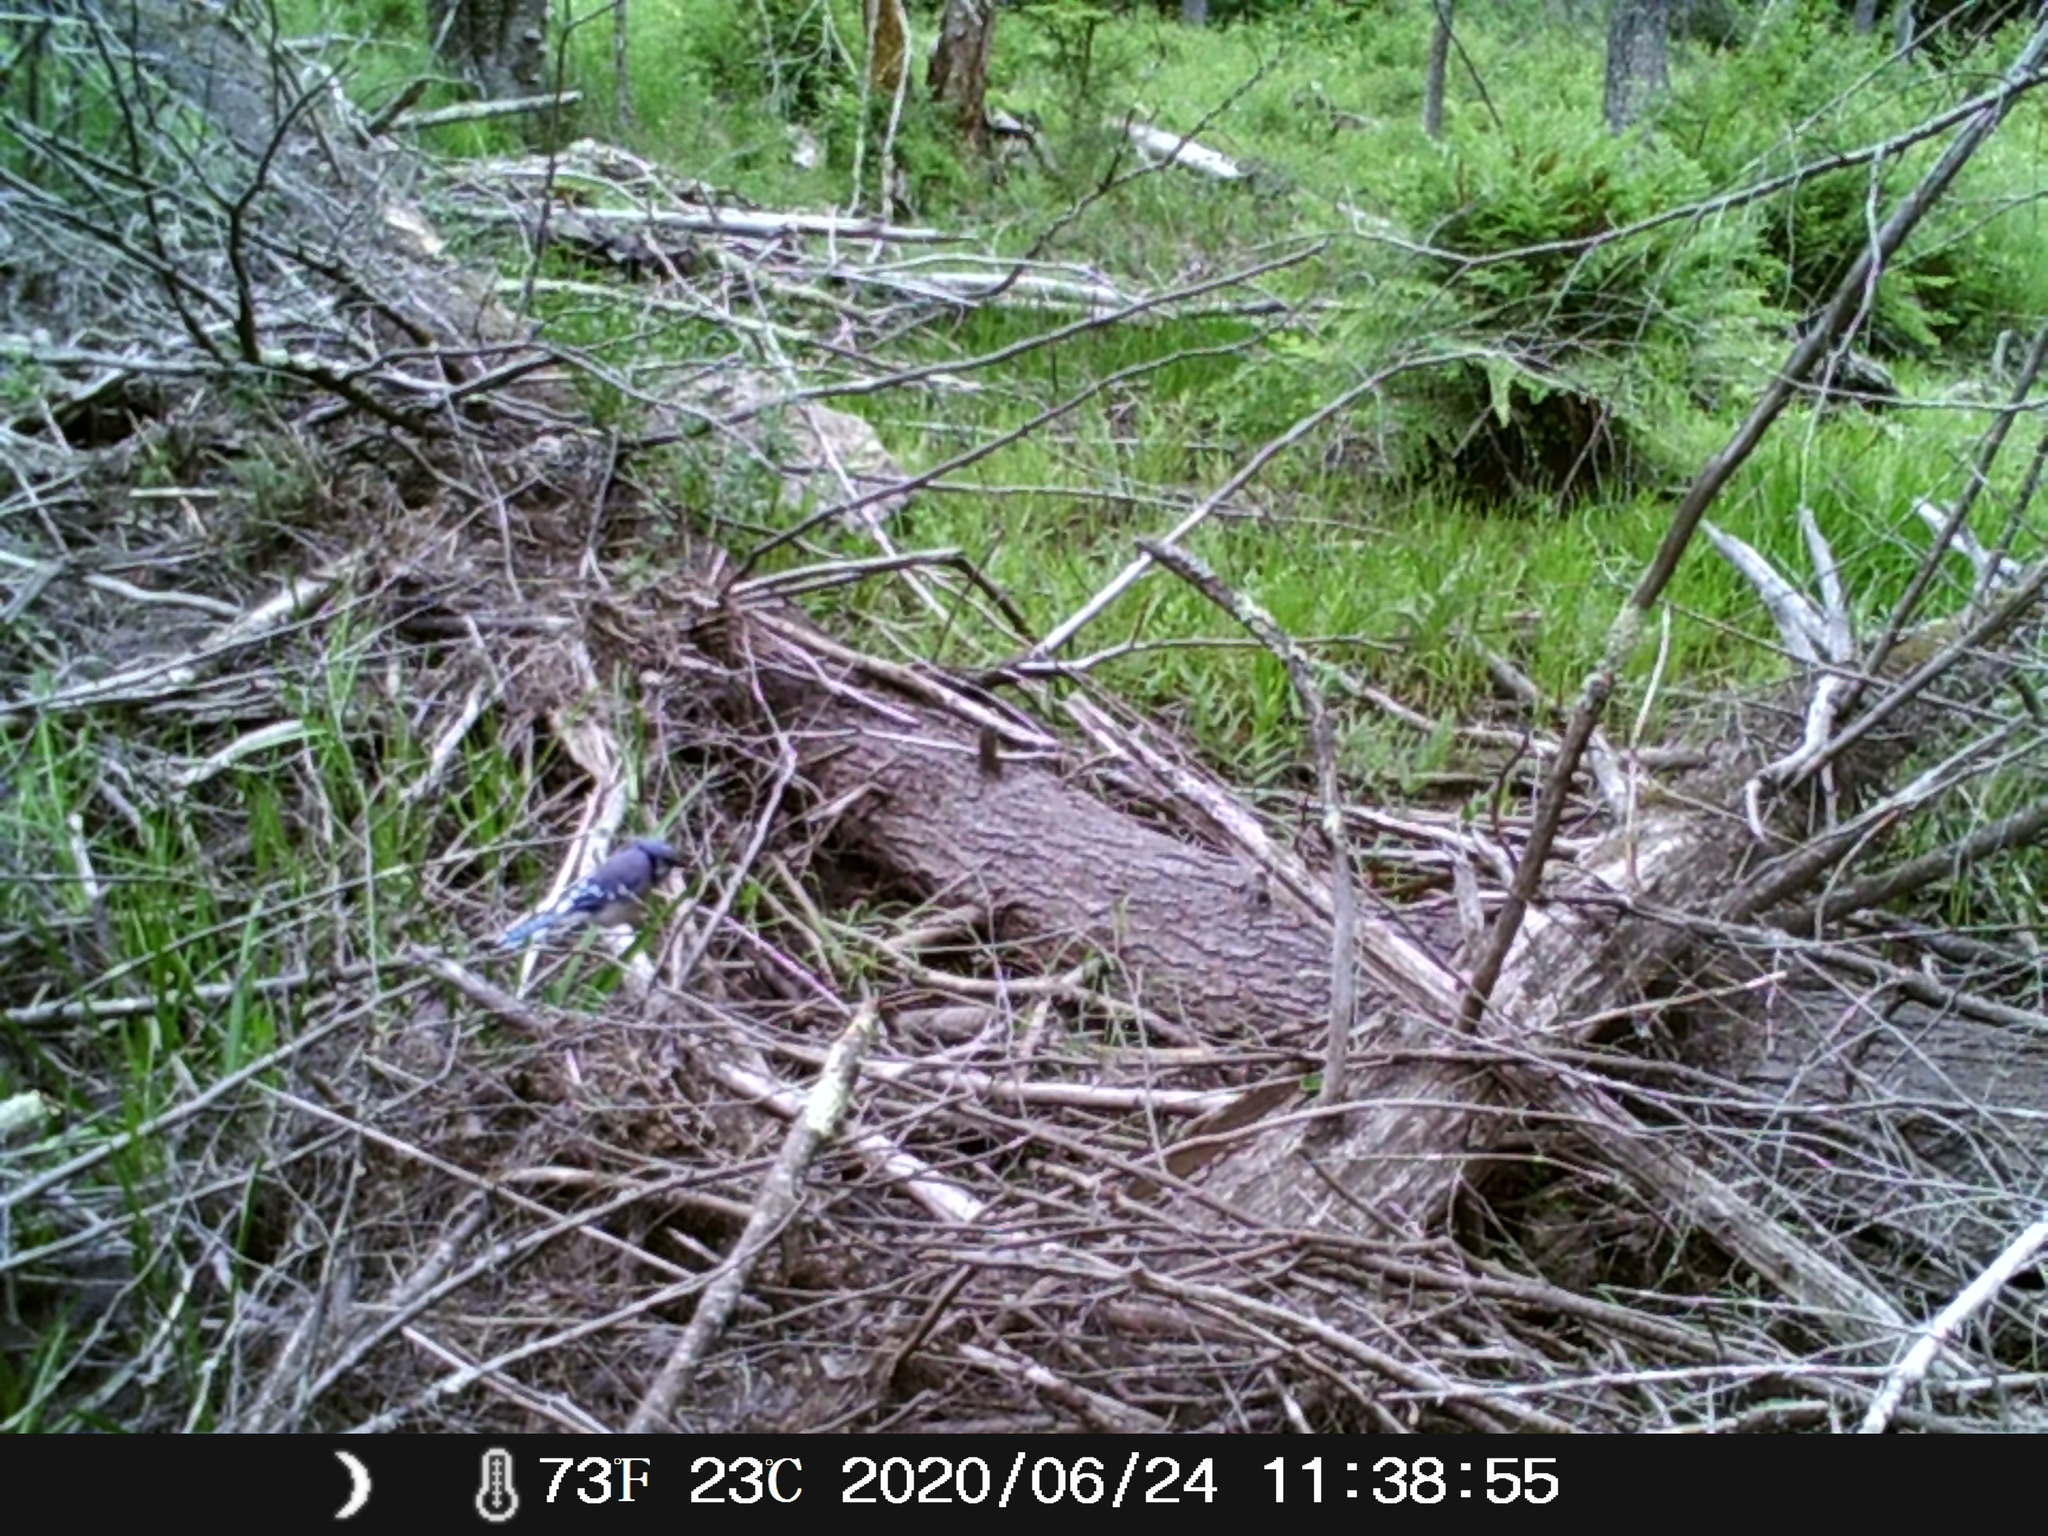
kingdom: Animalia
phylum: Chordata
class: Aves
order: Passeriformes
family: Corvidae
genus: Cyanocitta
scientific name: Cyanocitta cristata
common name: Blue jay
